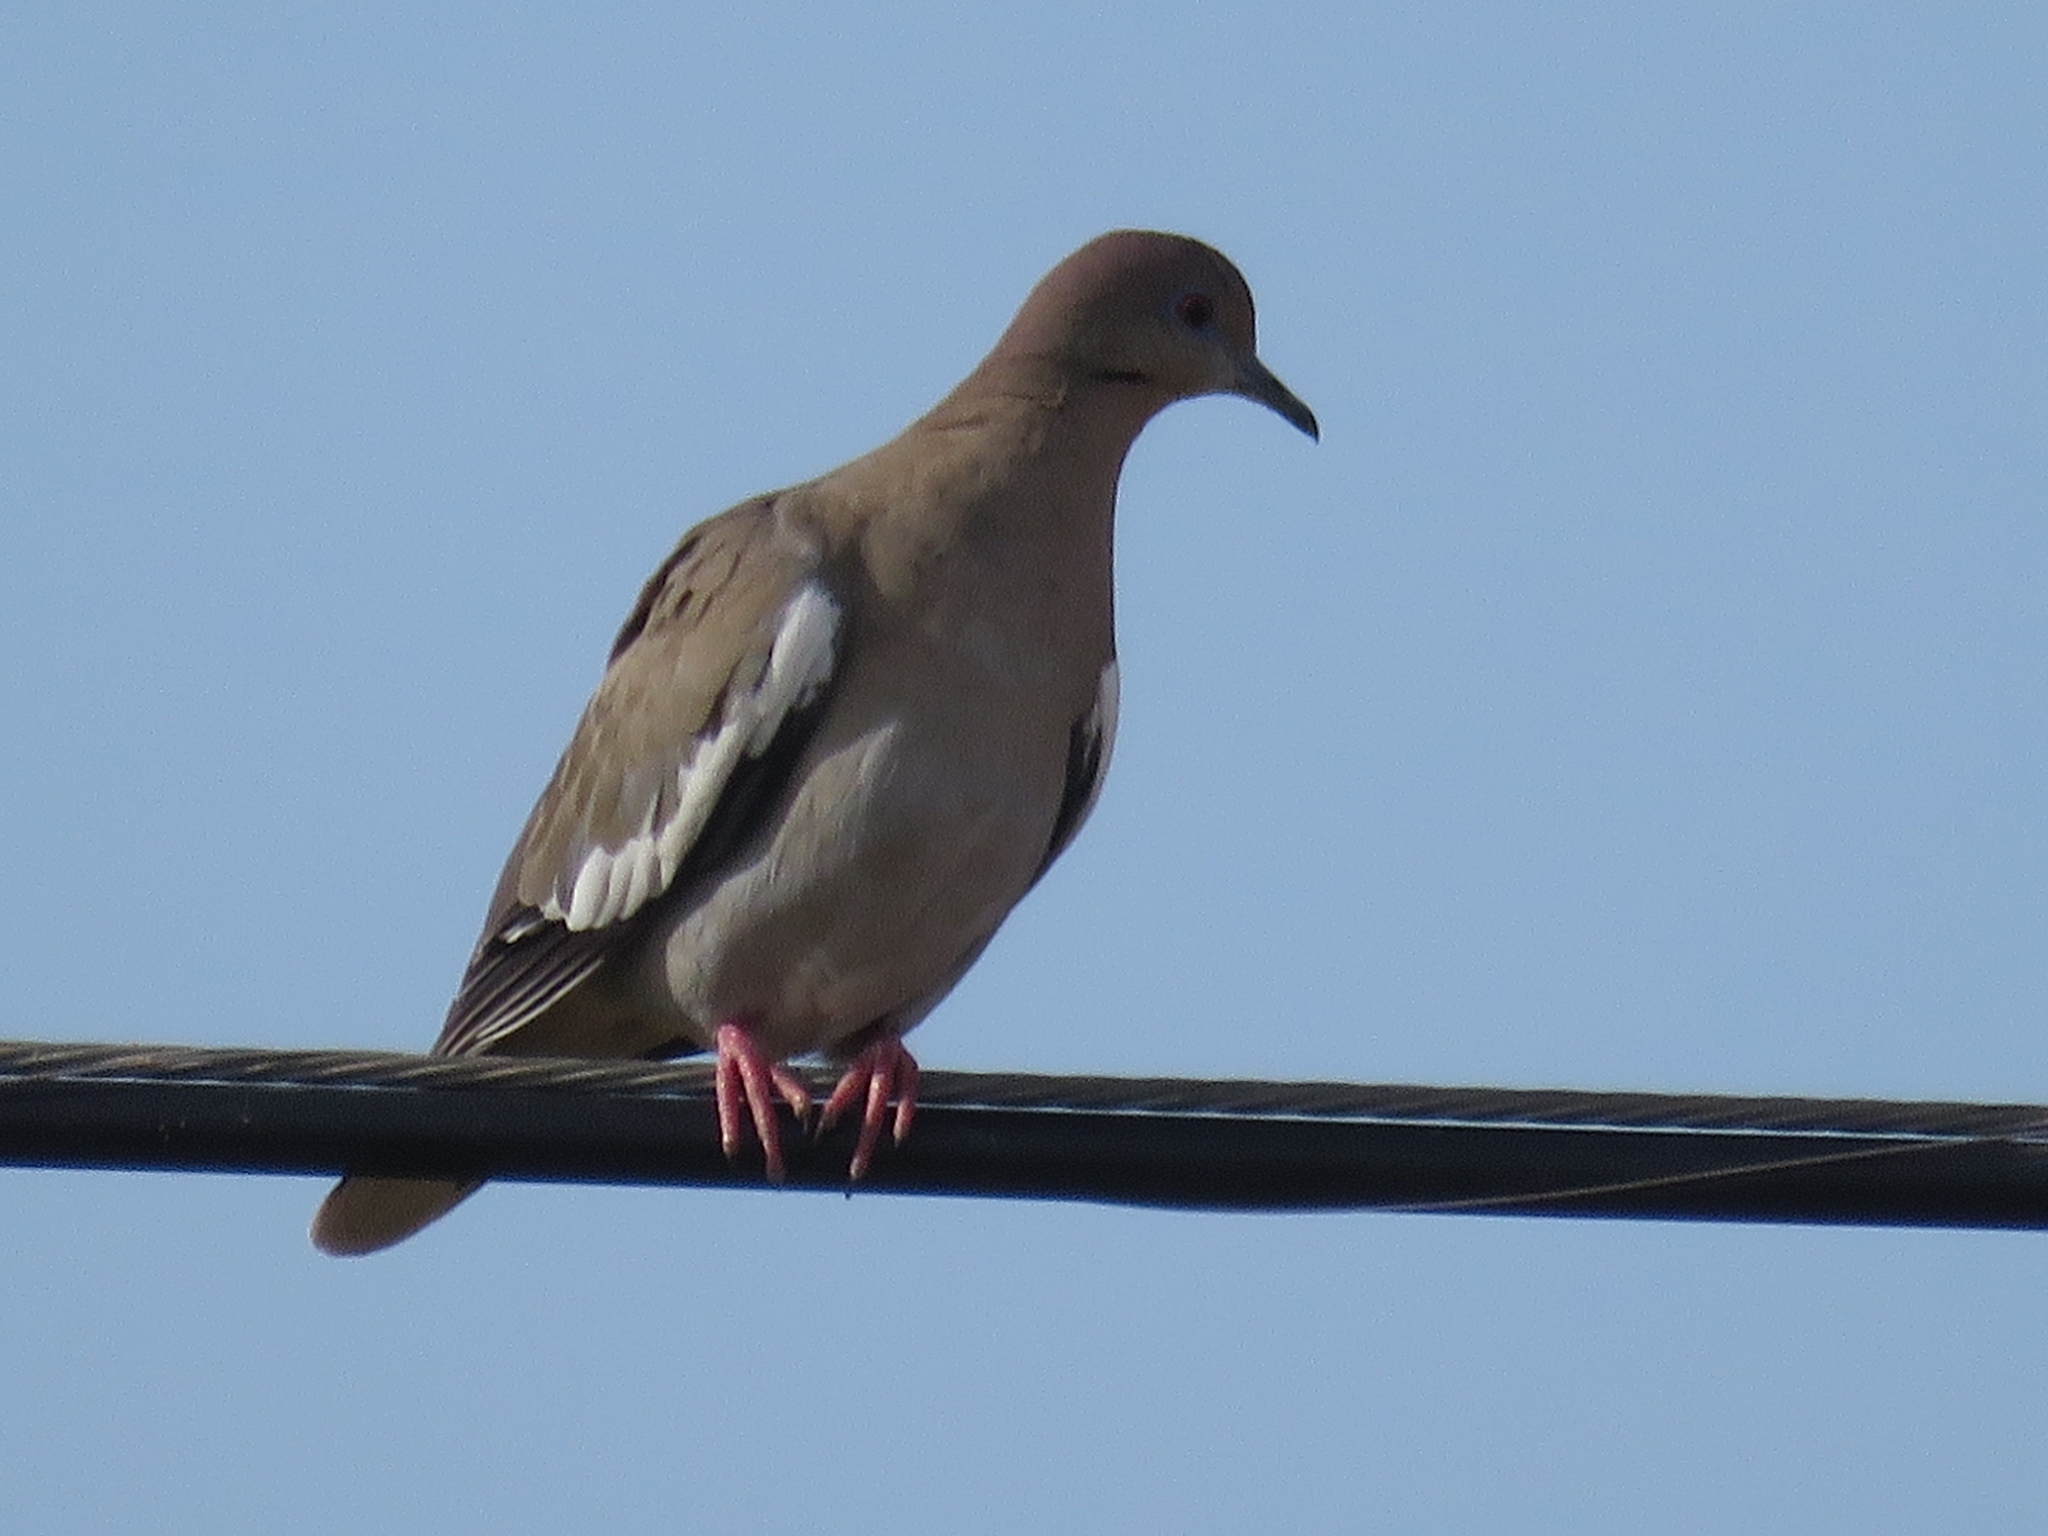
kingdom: Animalia
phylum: Chordata
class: Aves
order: Columbiformes
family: Columbidae
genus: Zenaida
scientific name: Zenaida asiatica
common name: White-winged dove
